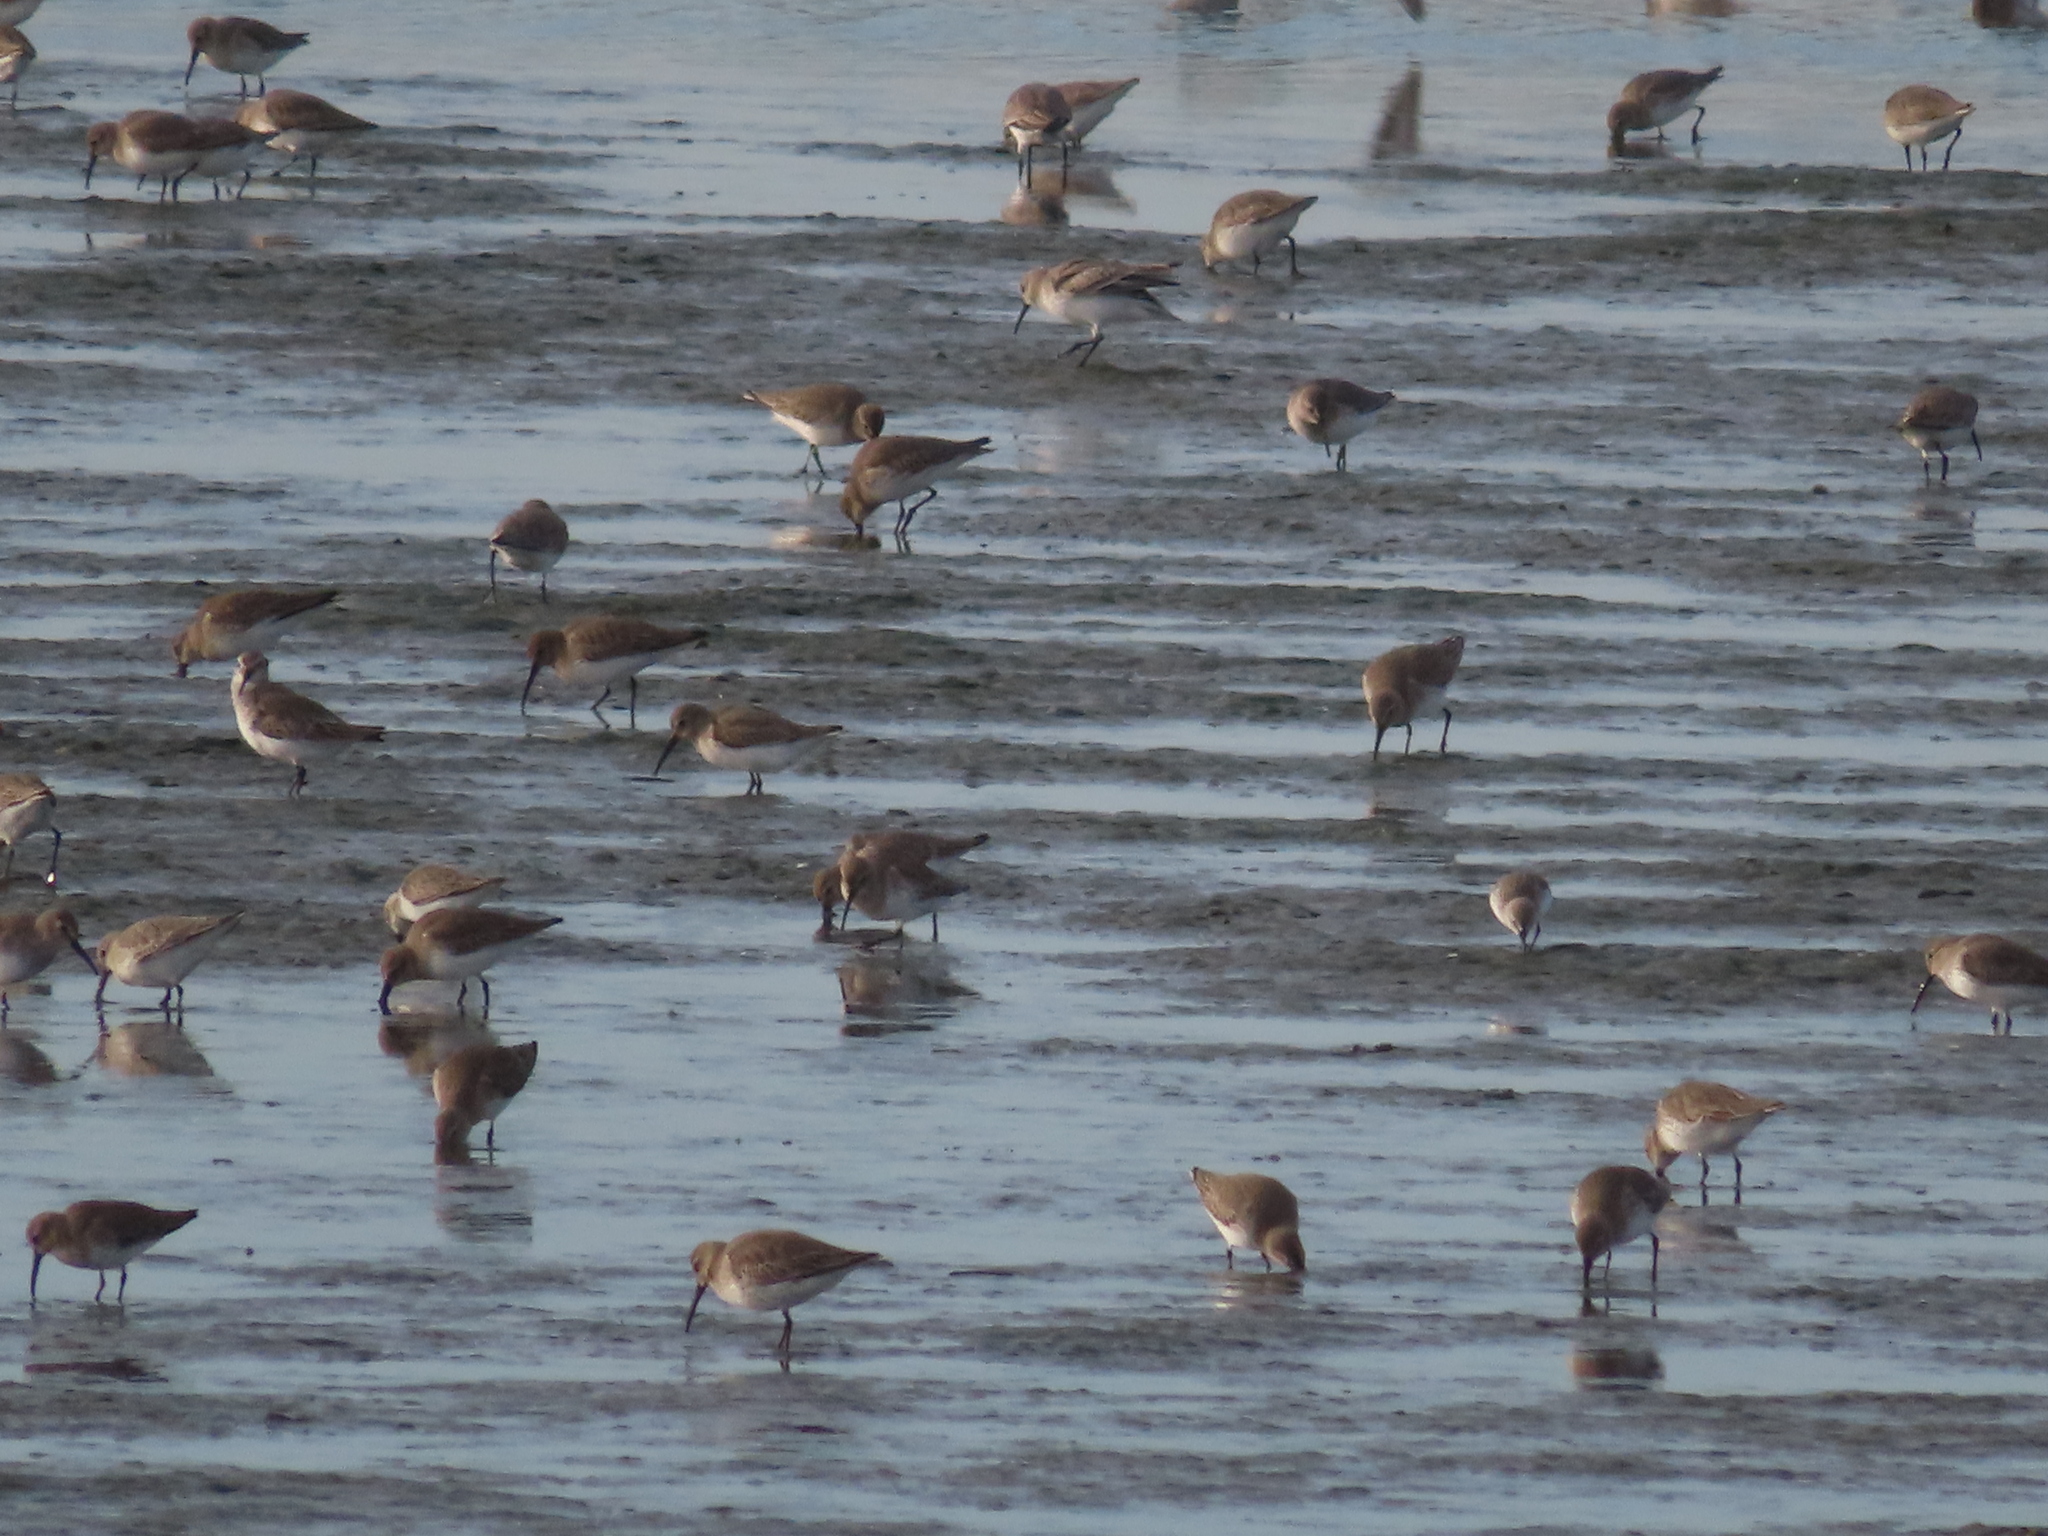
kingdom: Animalia
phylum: Chordata
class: Aves
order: Charadriiformes
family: Scolopacidae
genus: Calidris
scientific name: Calidris alpina
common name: Dunlin
